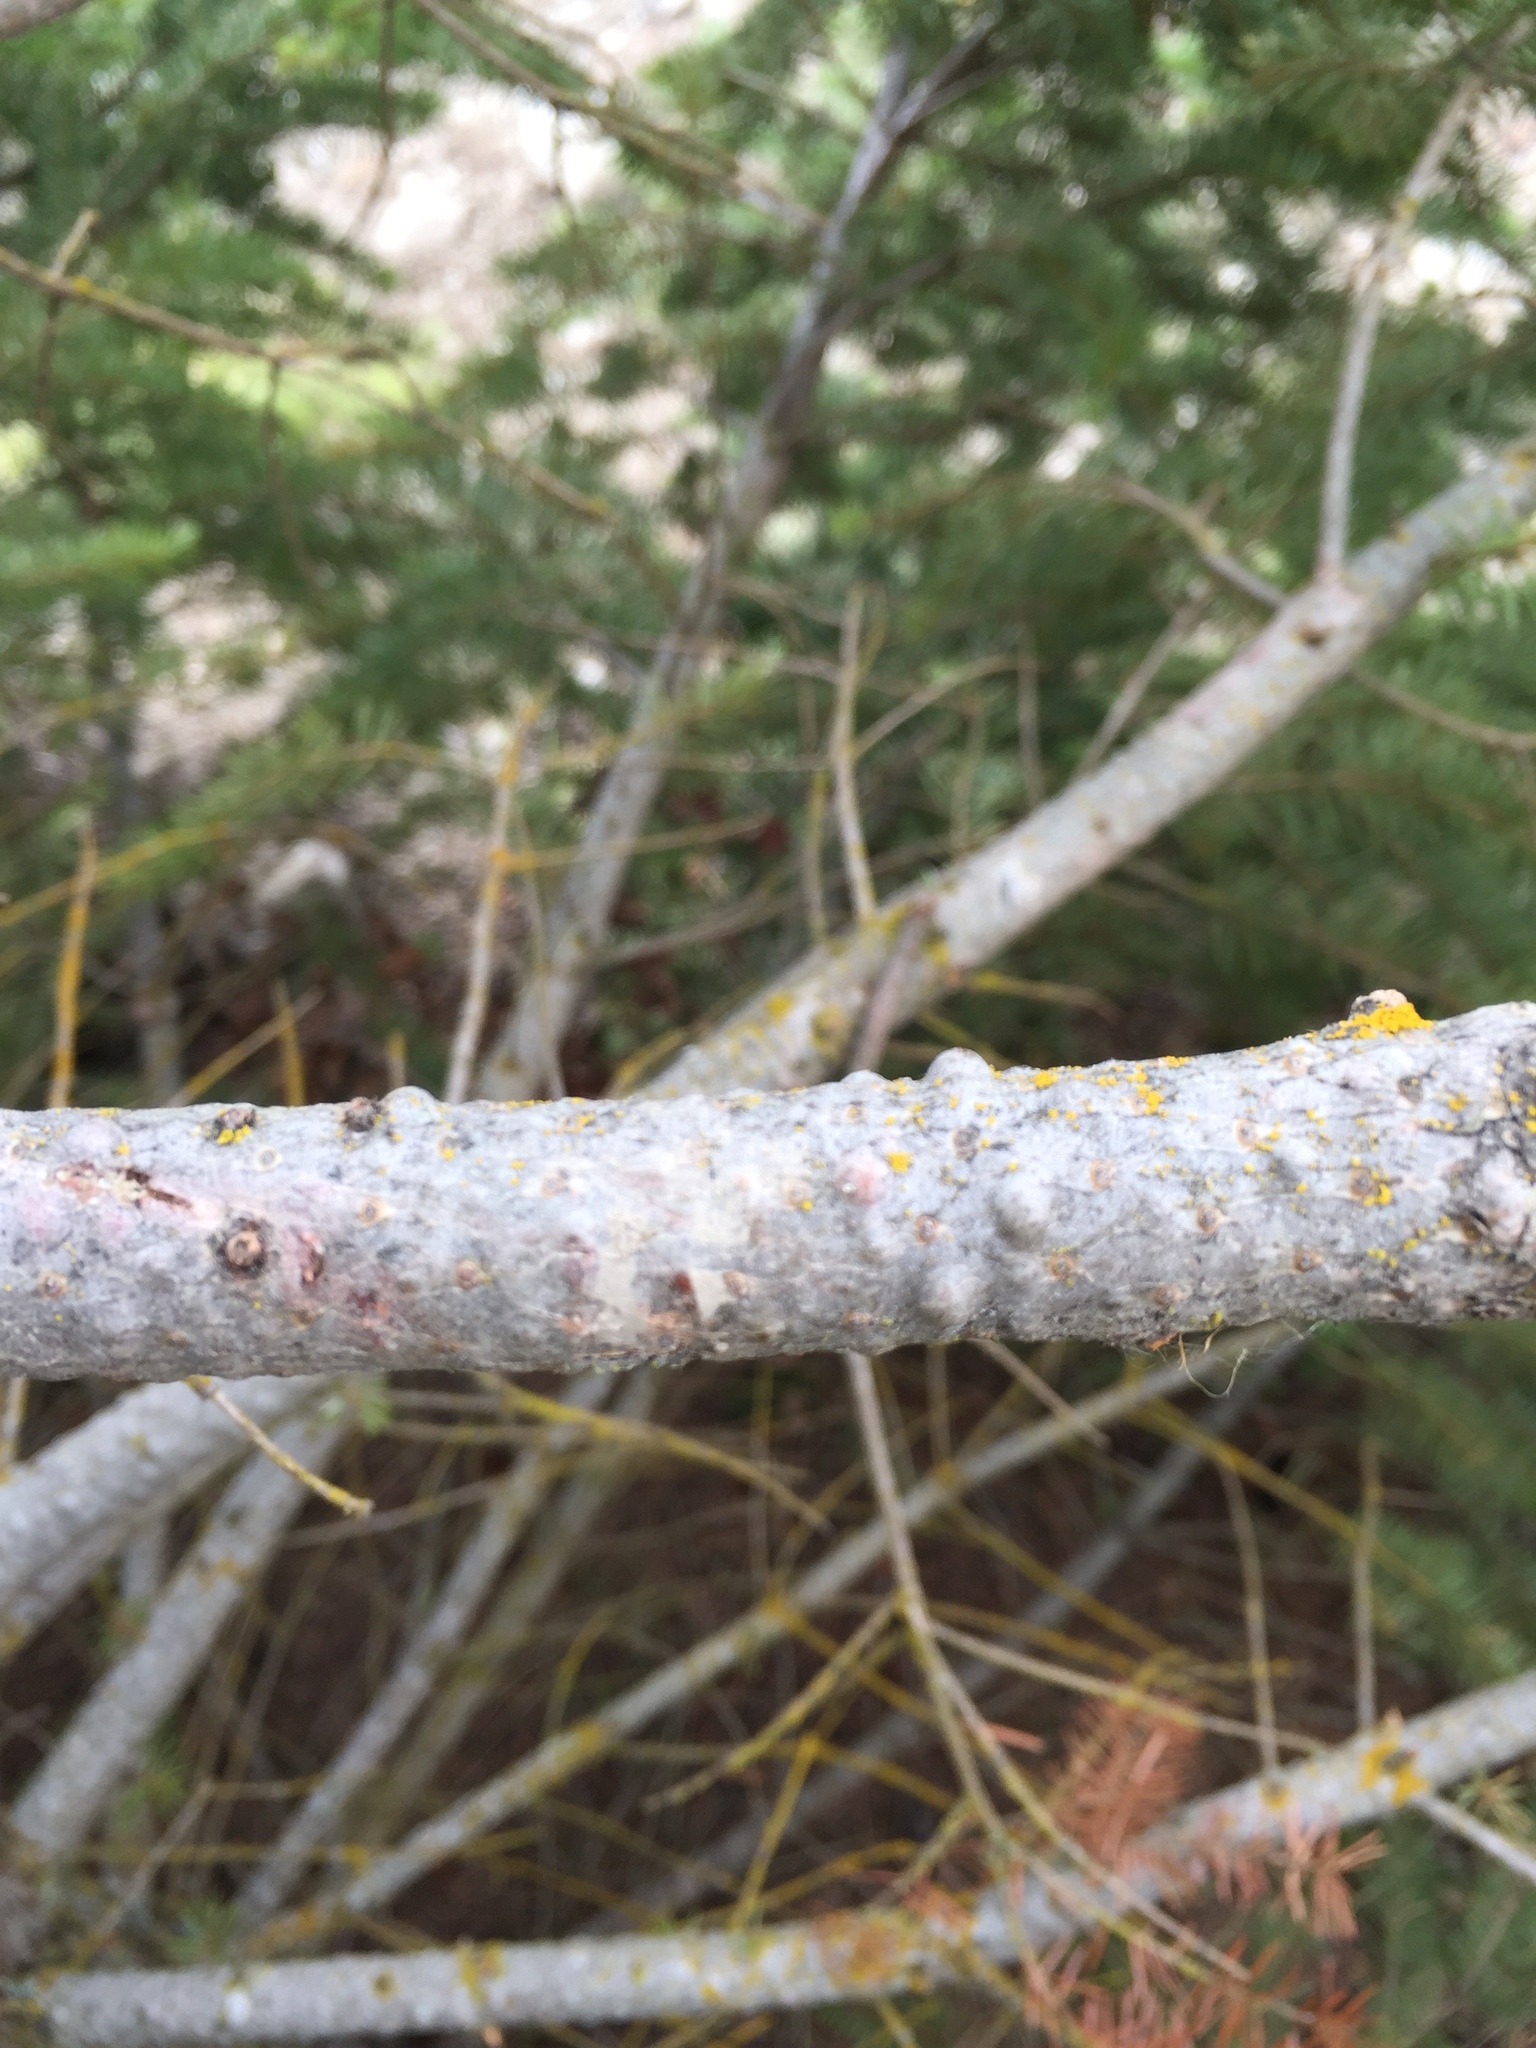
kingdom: Plantae
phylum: Tracheophyta
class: Pinopsida
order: Pinales
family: Pinaceae
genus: Pseudotsuga
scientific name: Pseudotsuga menziesii
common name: Douglas fir
